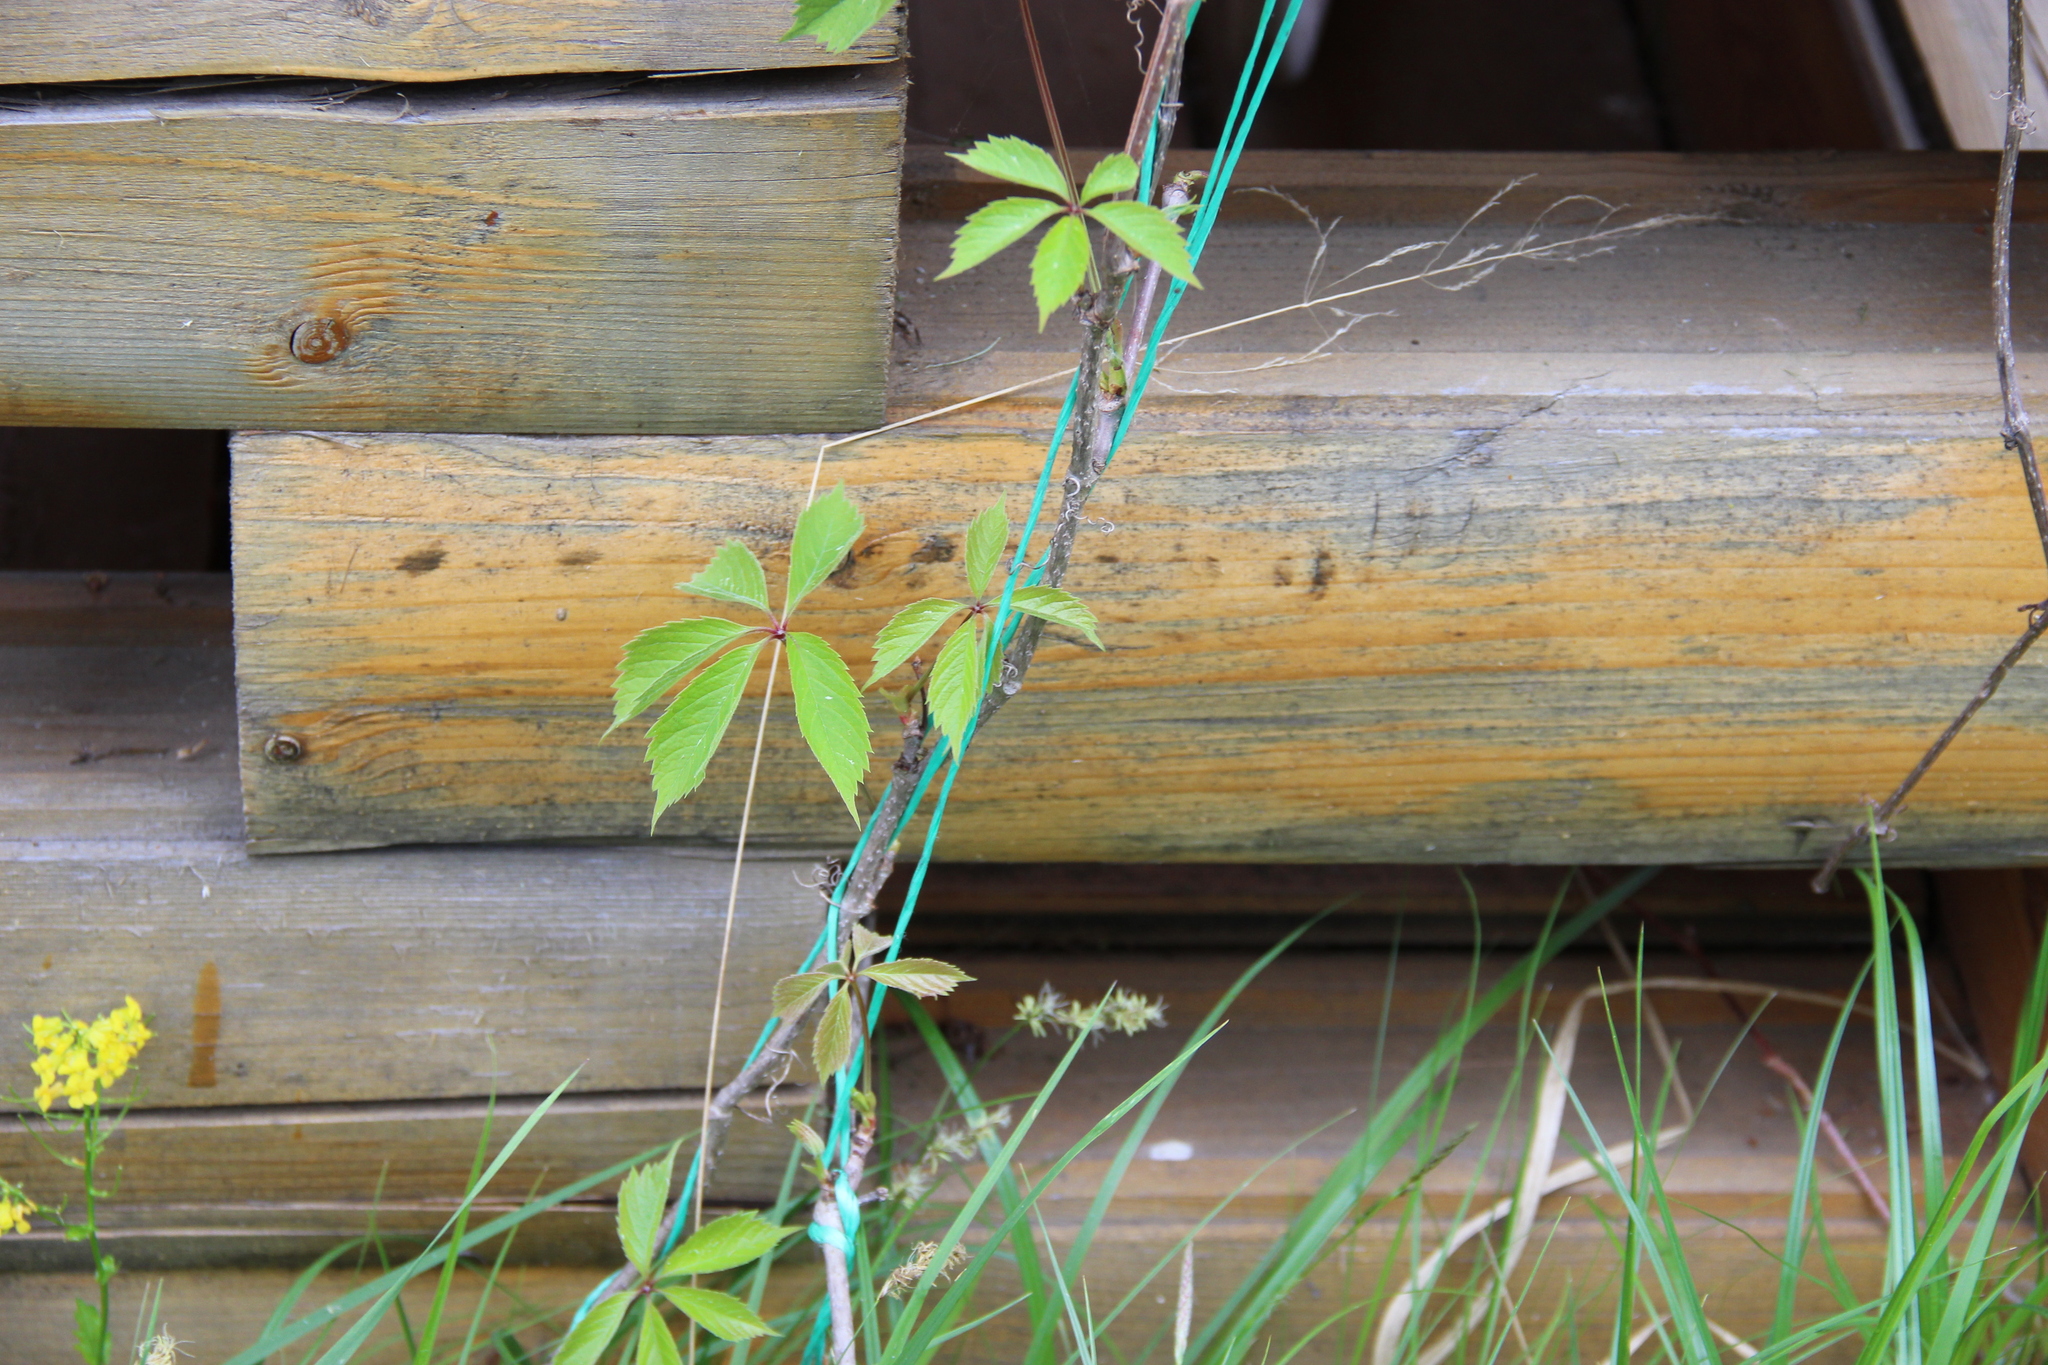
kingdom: Plantae
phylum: Tracheophyta
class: Magnoliopsida
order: Vitales
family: Vitaceae
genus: Parthenocissus
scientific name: Parthenocissus inserta
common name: False virginia-creeper
